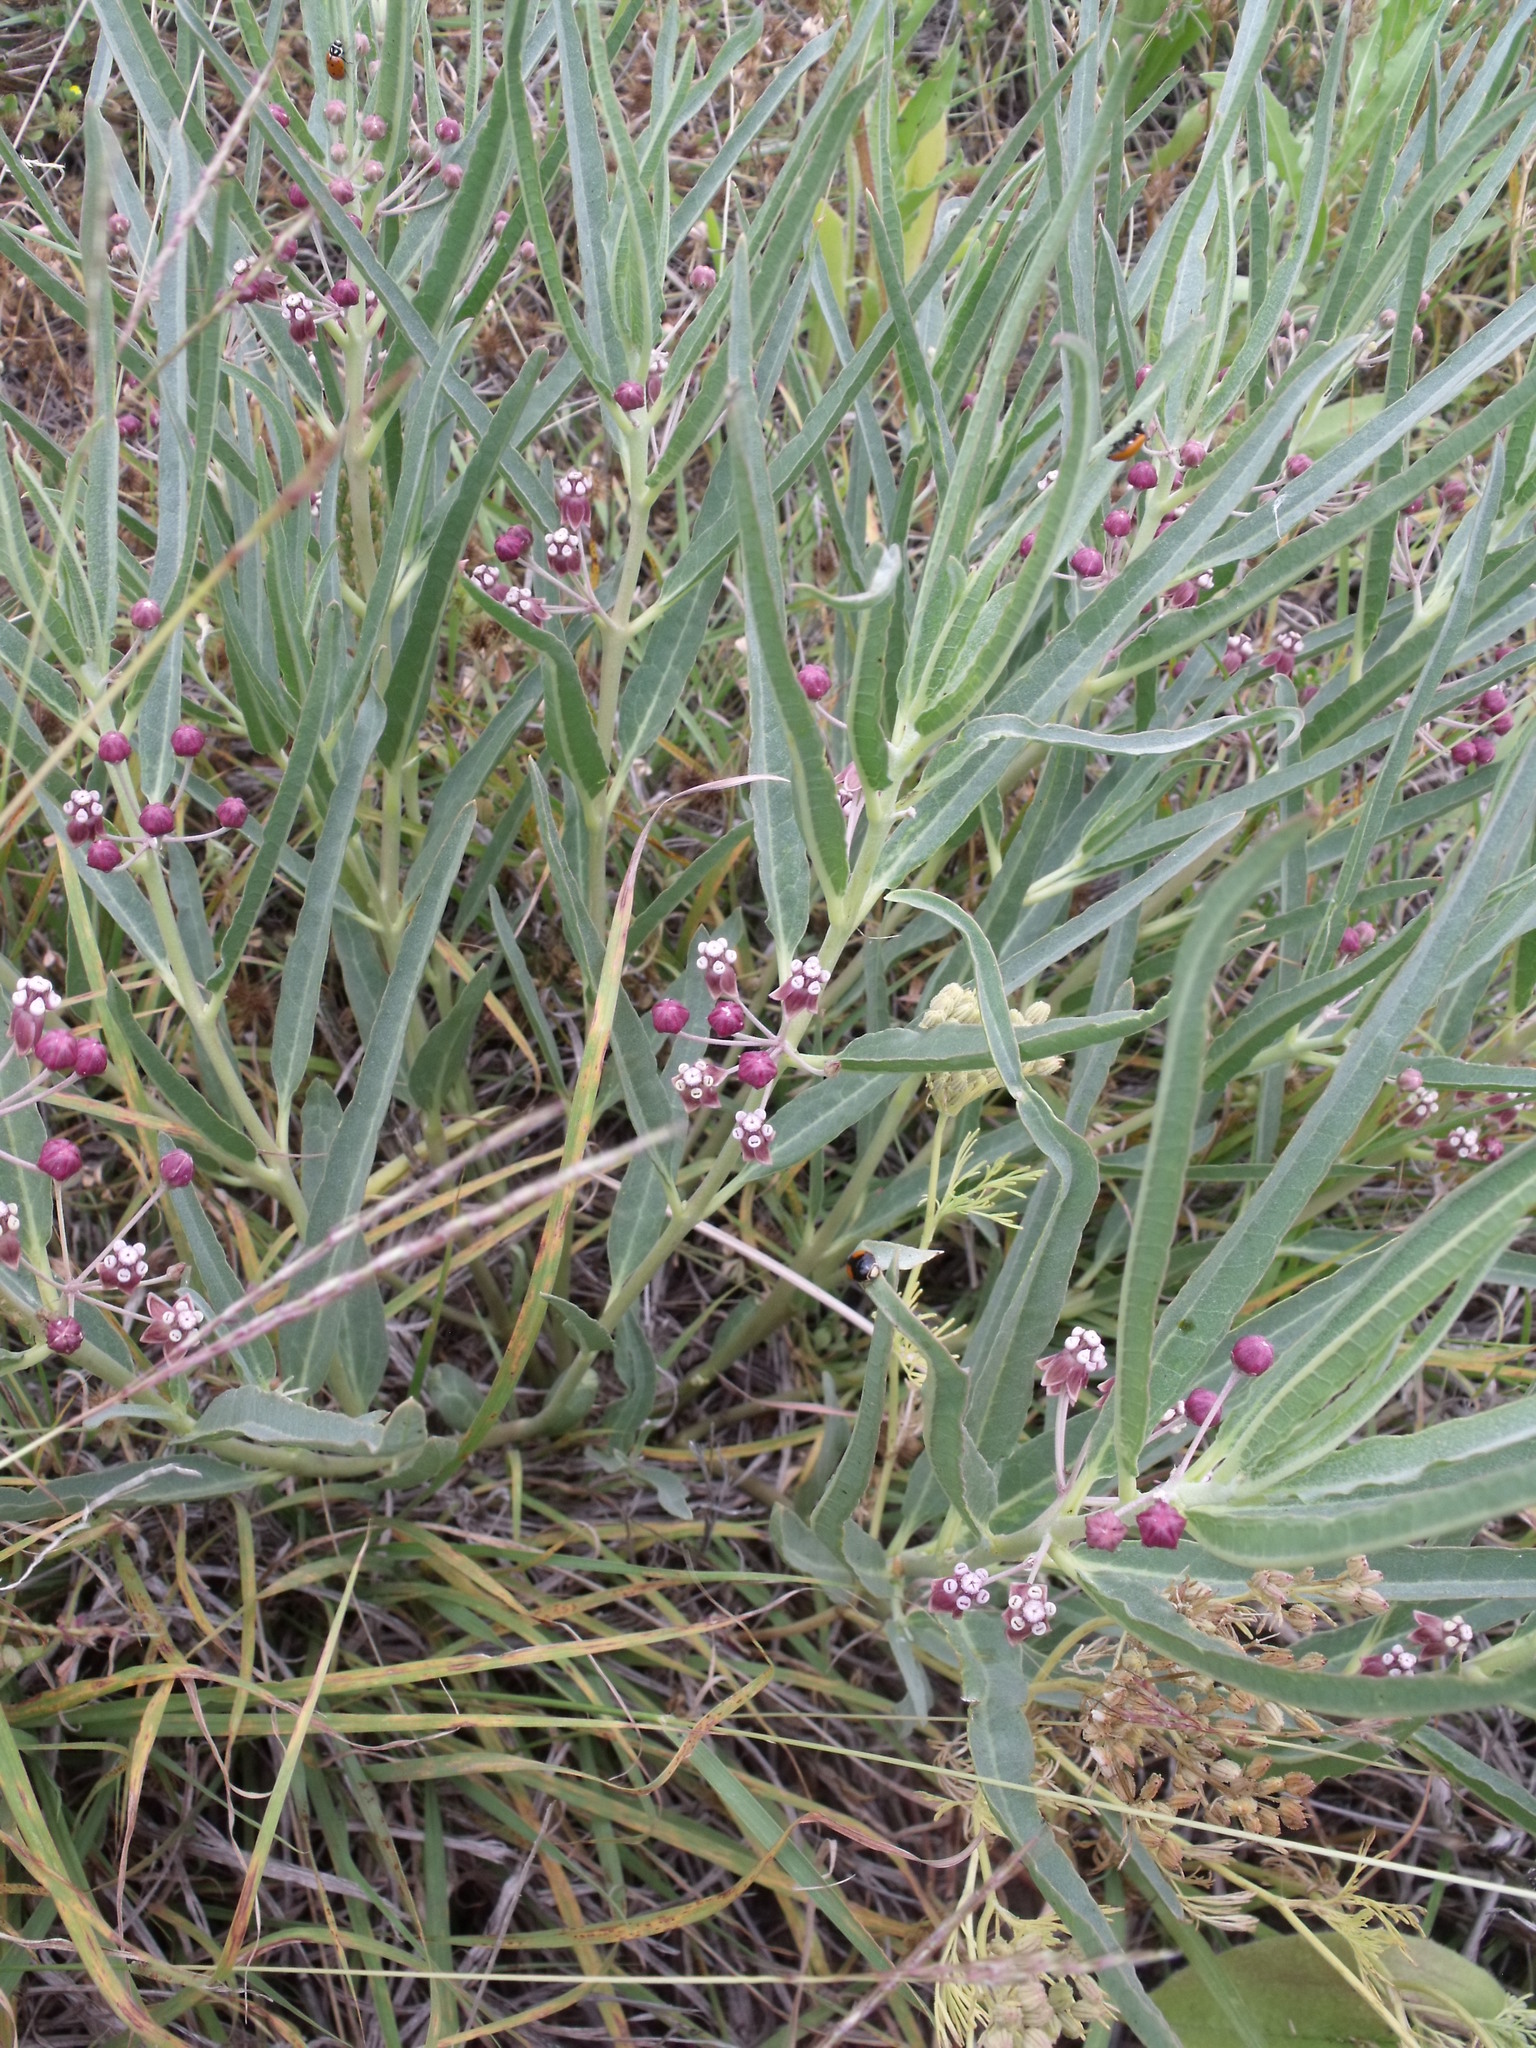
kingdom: Plantae
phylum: Tracheophyta
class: Magnoliopsida
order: Gentianales
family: Apocynaceae
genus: Asclepias
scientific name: Asclepias brachystephana
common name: Shortcrown milkweed
